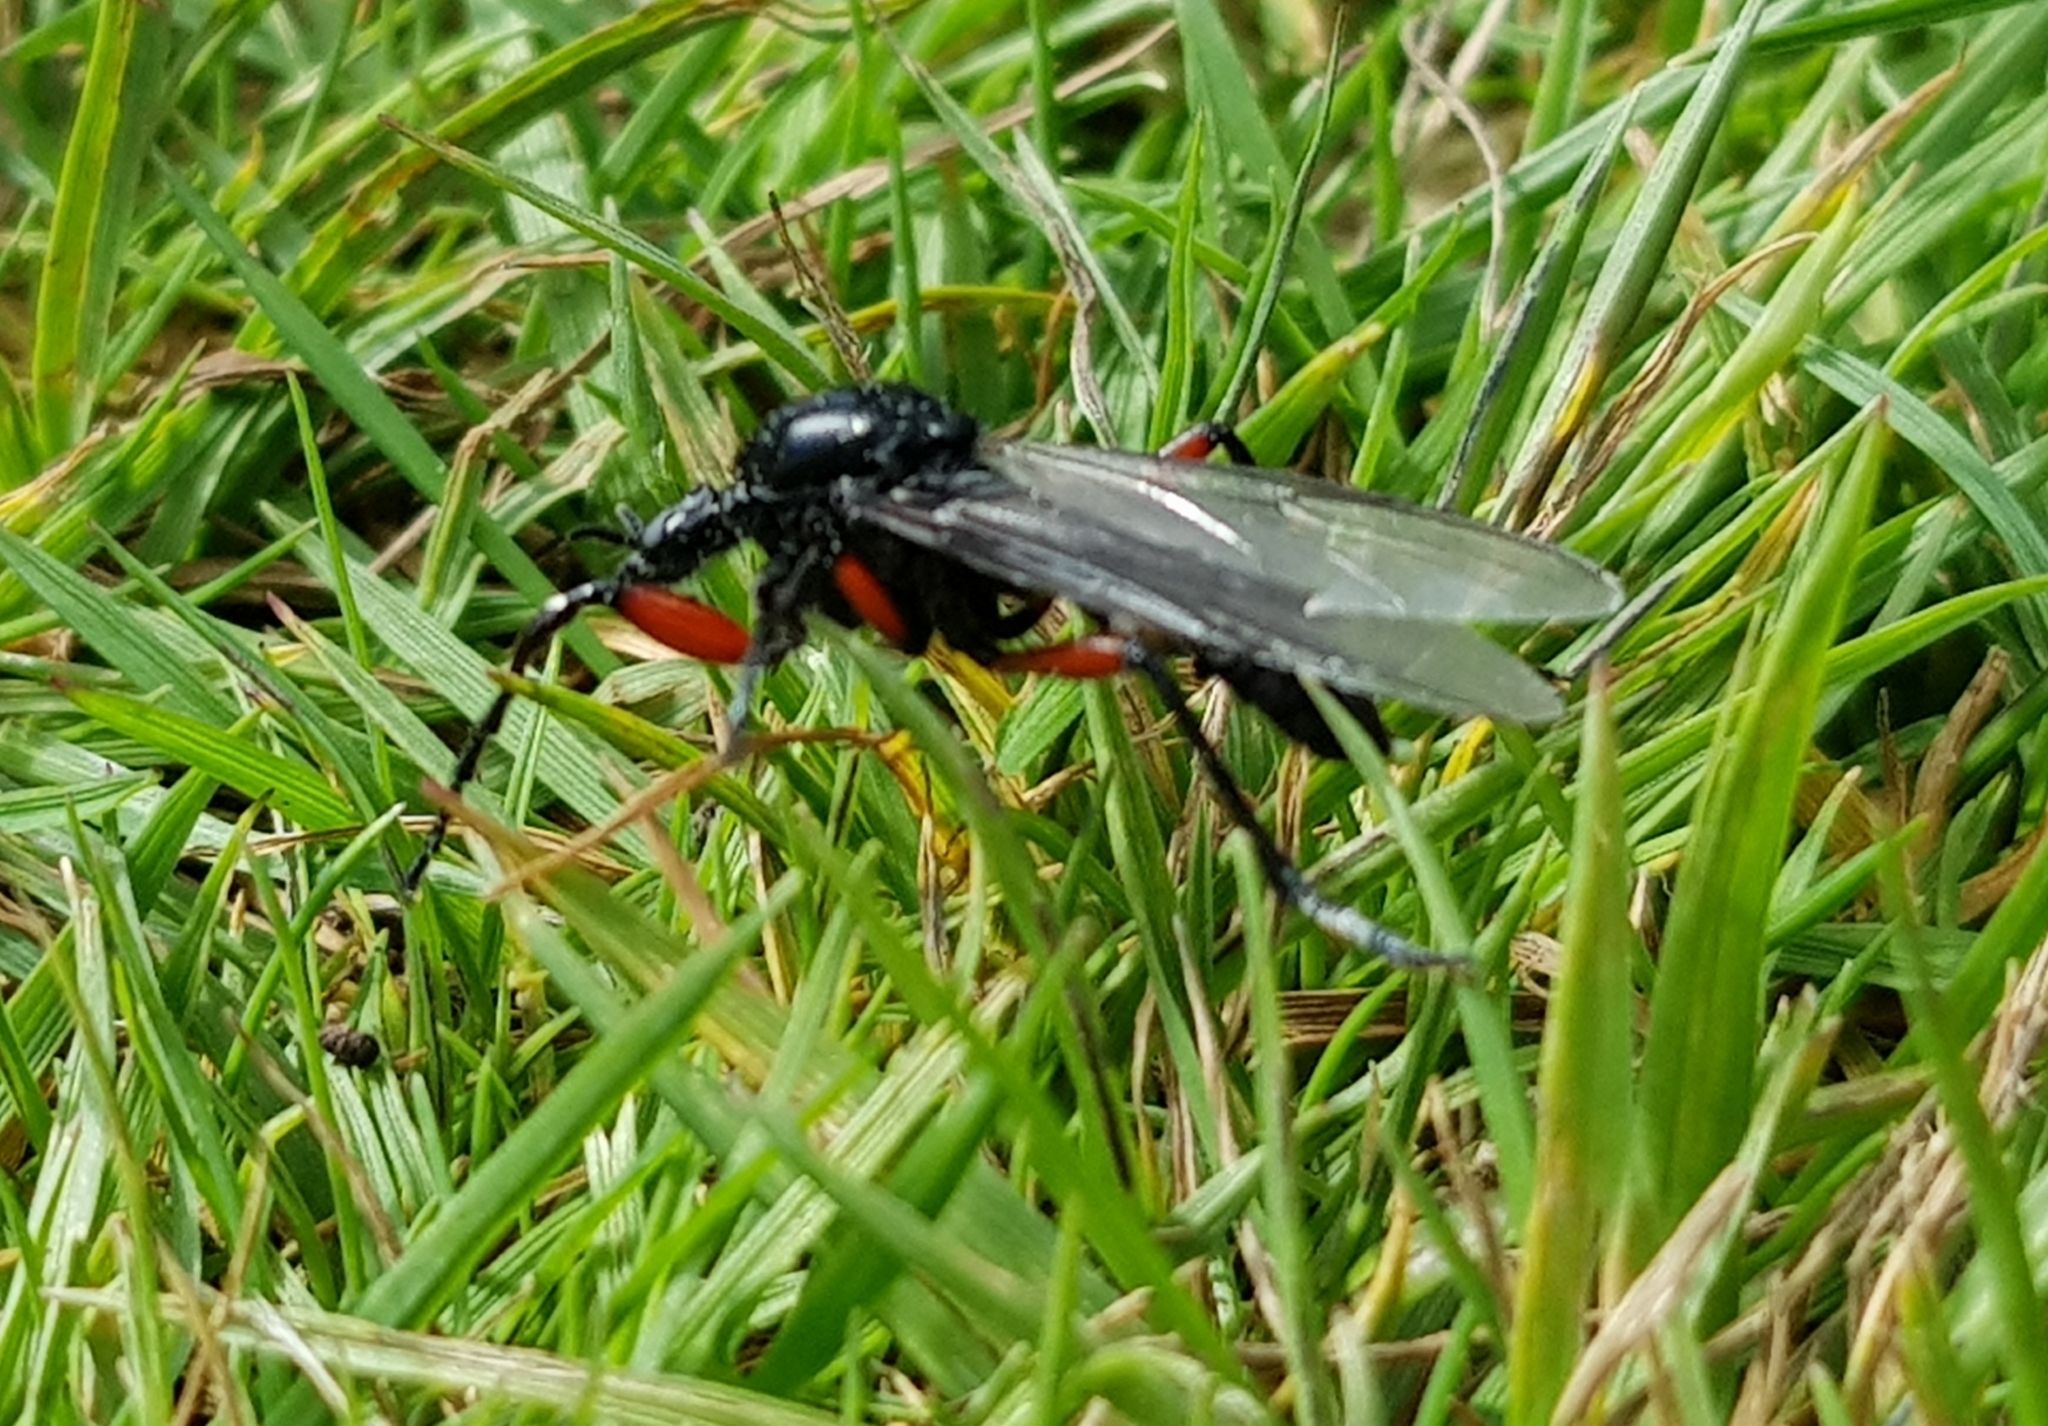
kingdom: Animalia
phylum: Arthropoda
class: Insecta
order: Diptera
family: Bibionidae
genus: Bibio
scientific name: Bibio pomonae
